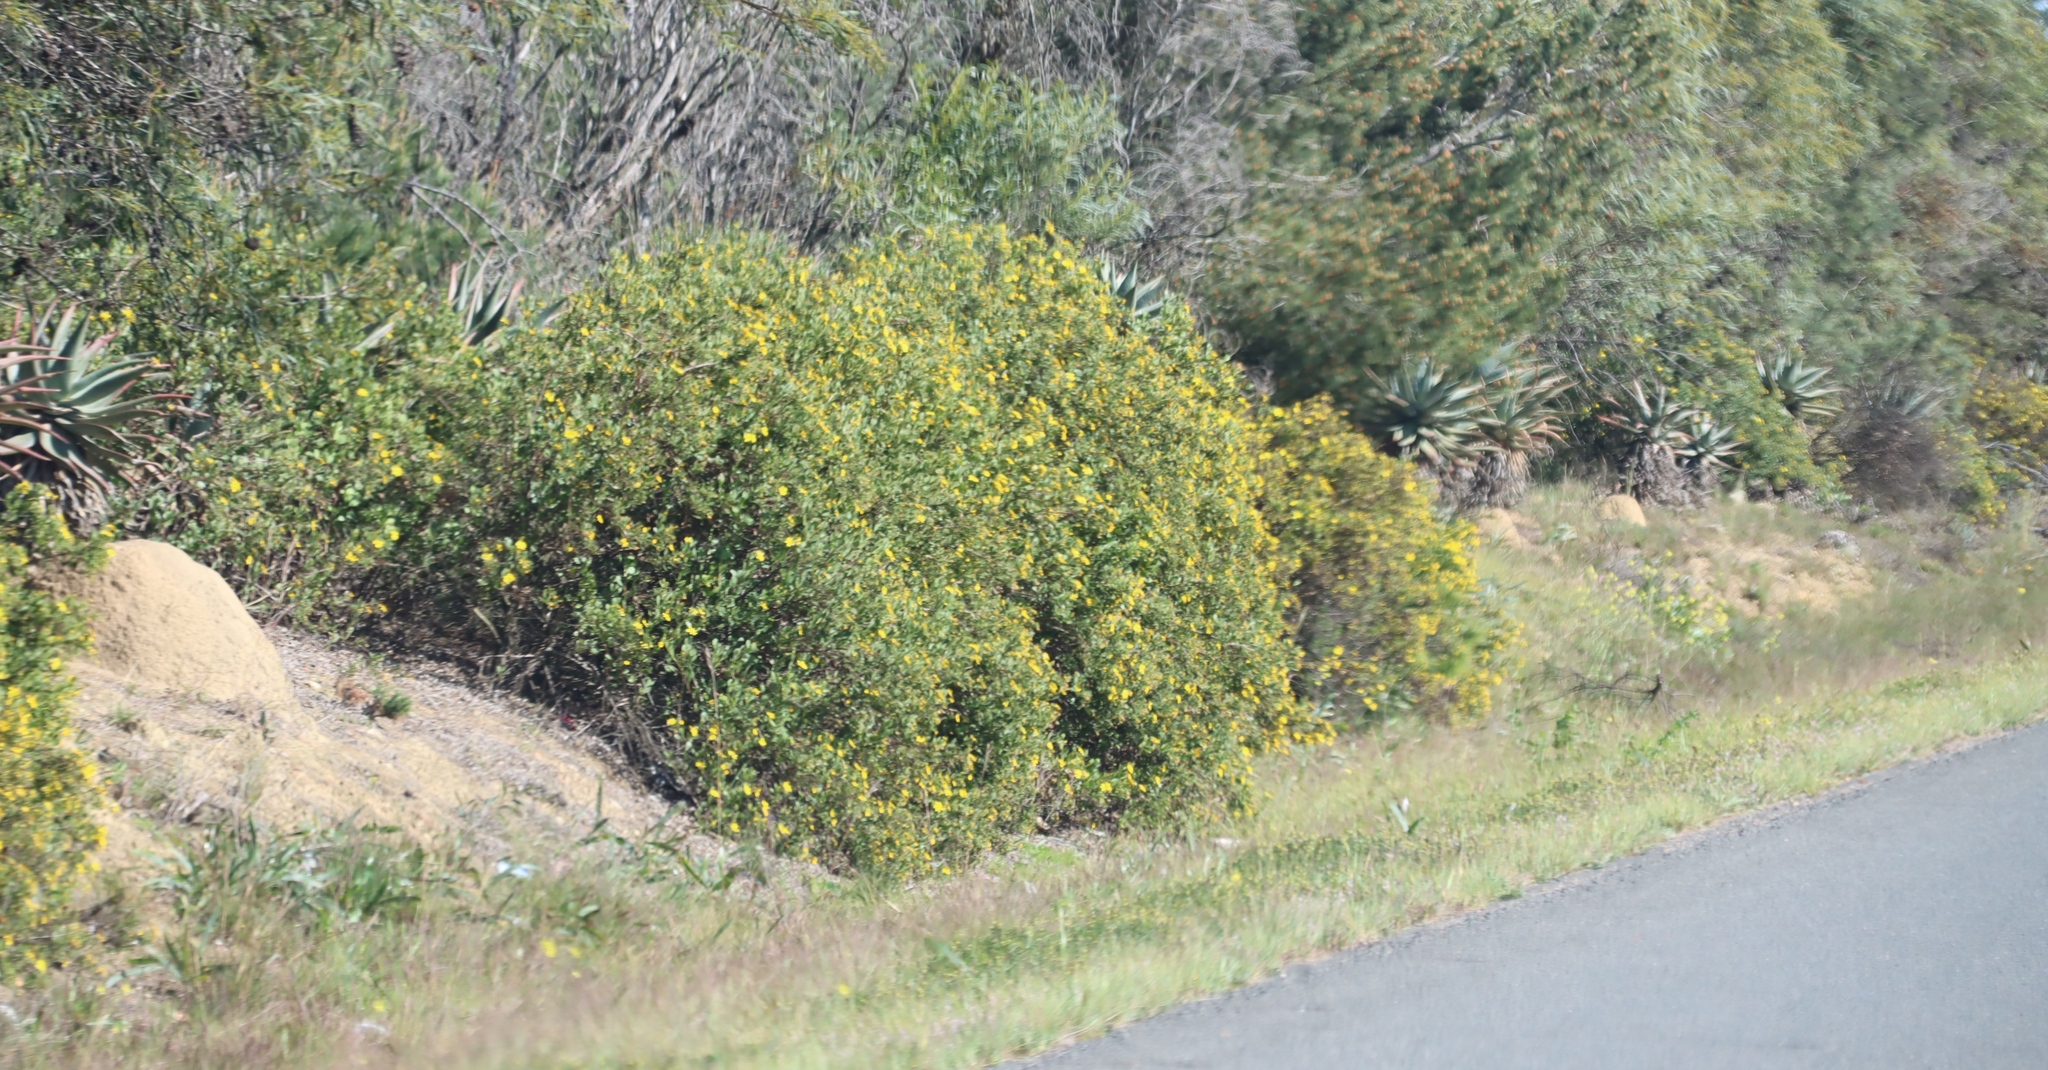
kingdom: Plantae
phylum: Tracheophyta
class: Magnoliopsida
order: Asterales
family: Asteraceae
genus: Osteospermum
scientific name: Osteospermum moniliferum
